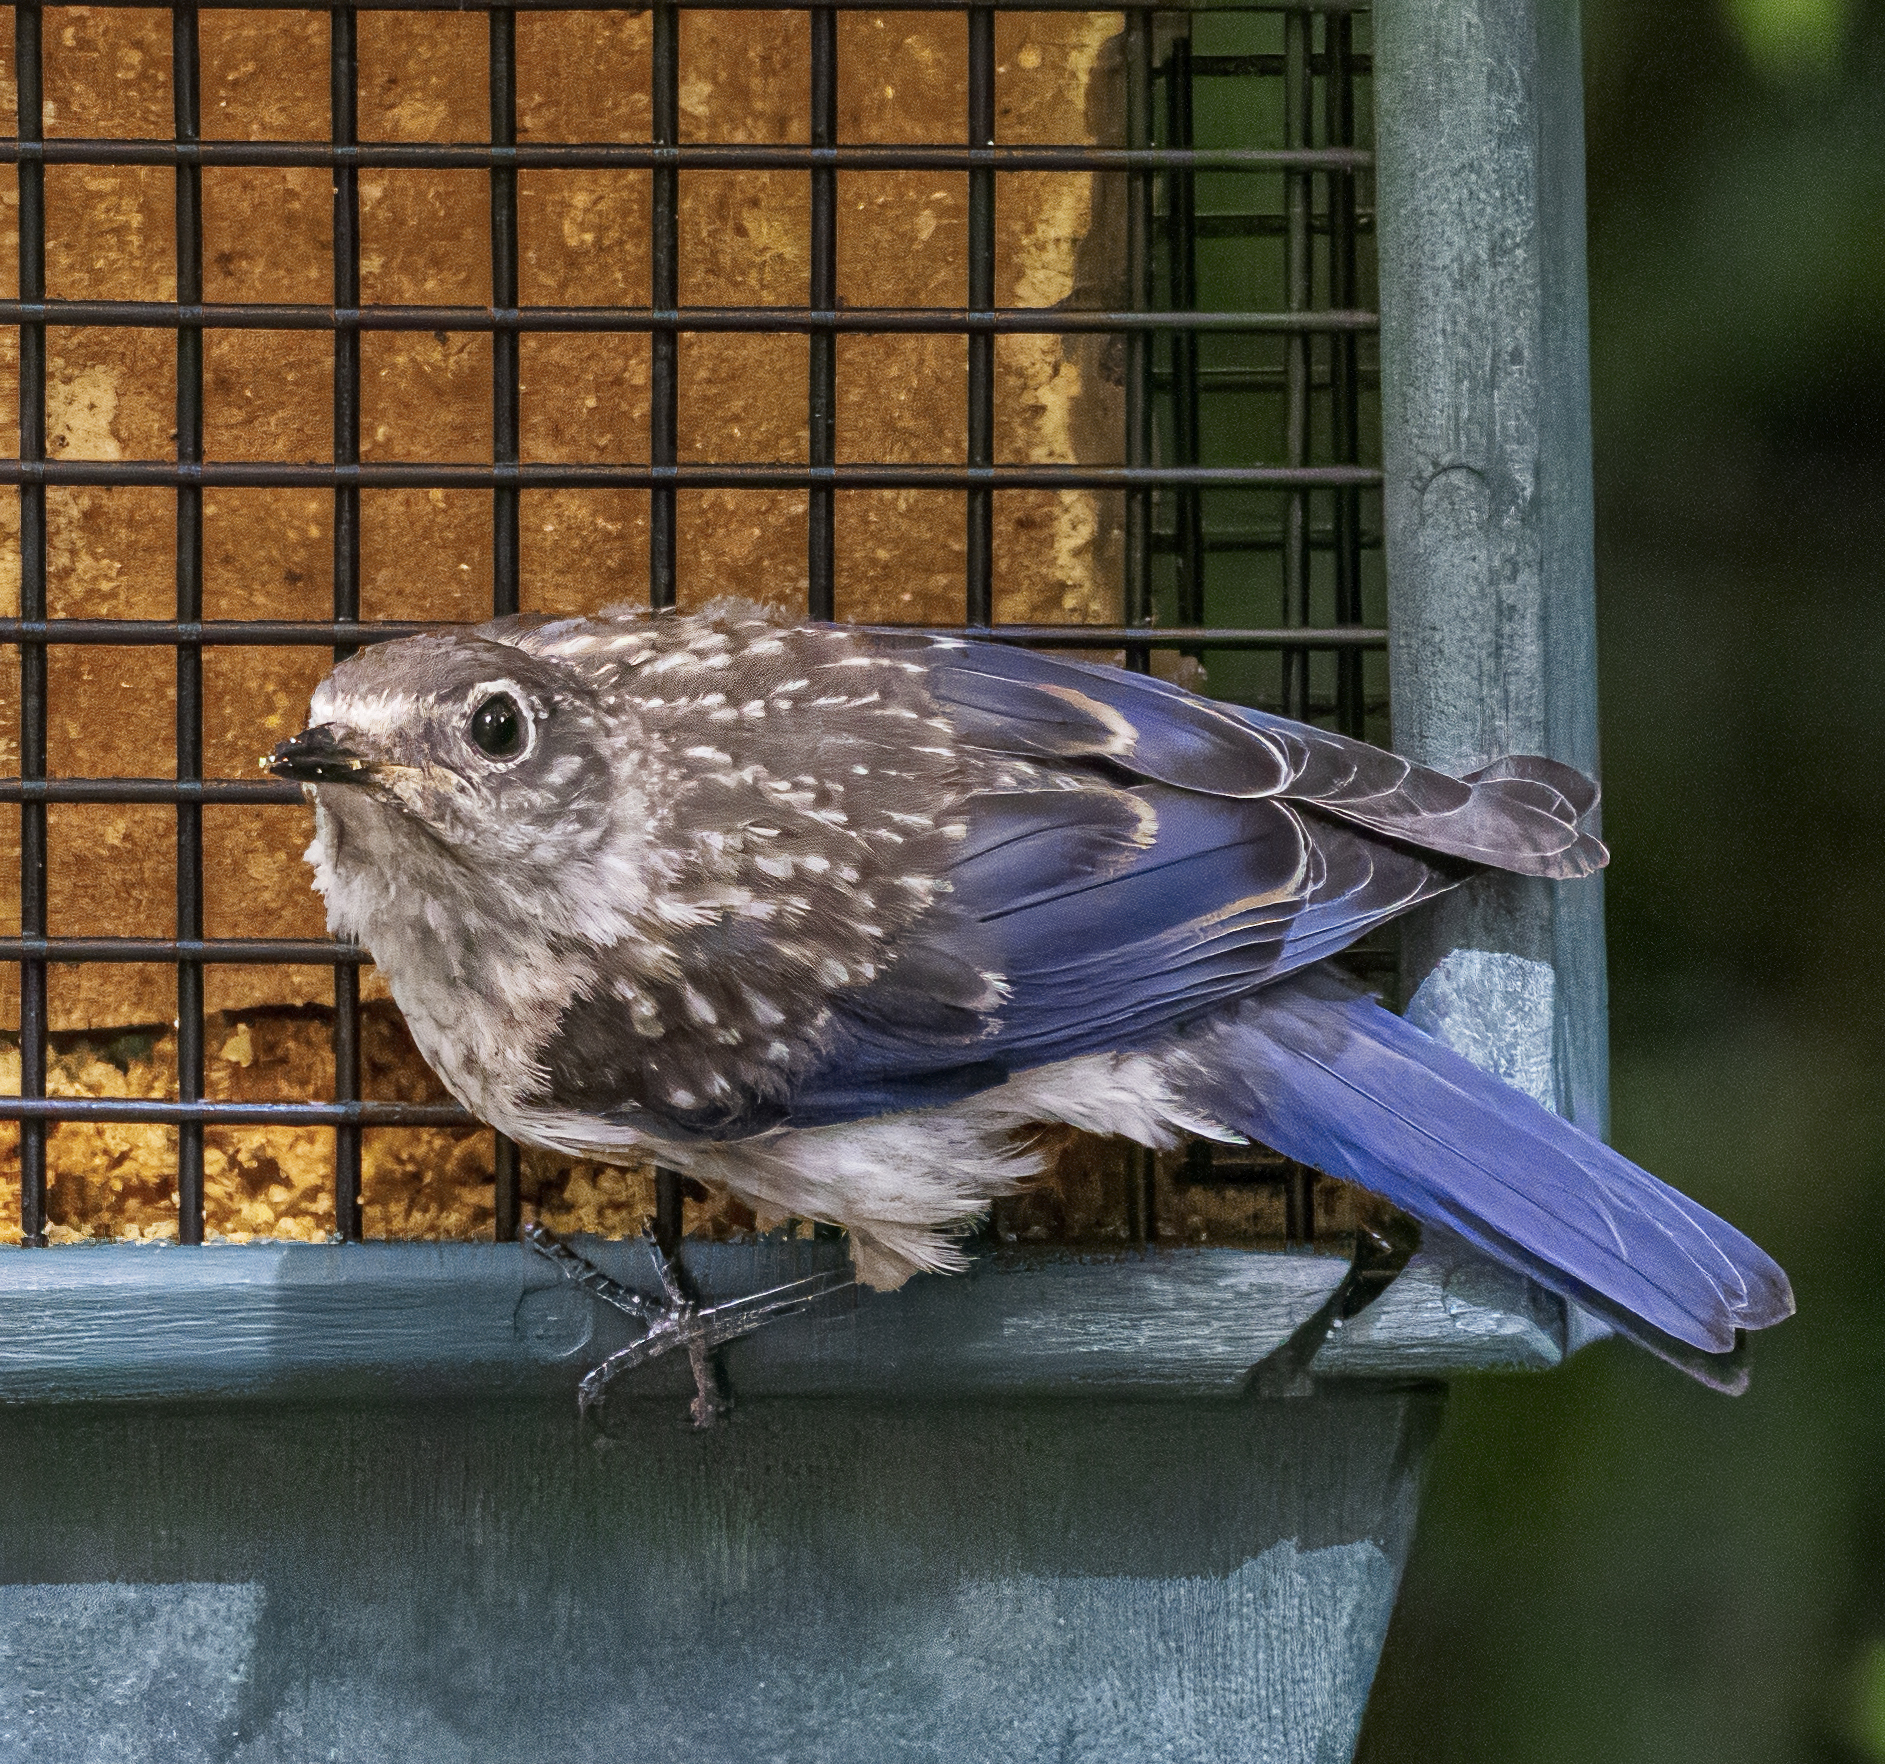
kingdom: Animalia
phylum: Chordata
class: Aves
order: Passeriformes
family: Turdidae
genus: Sialia
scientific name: Sialia sialis
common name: Eastern bluebird
